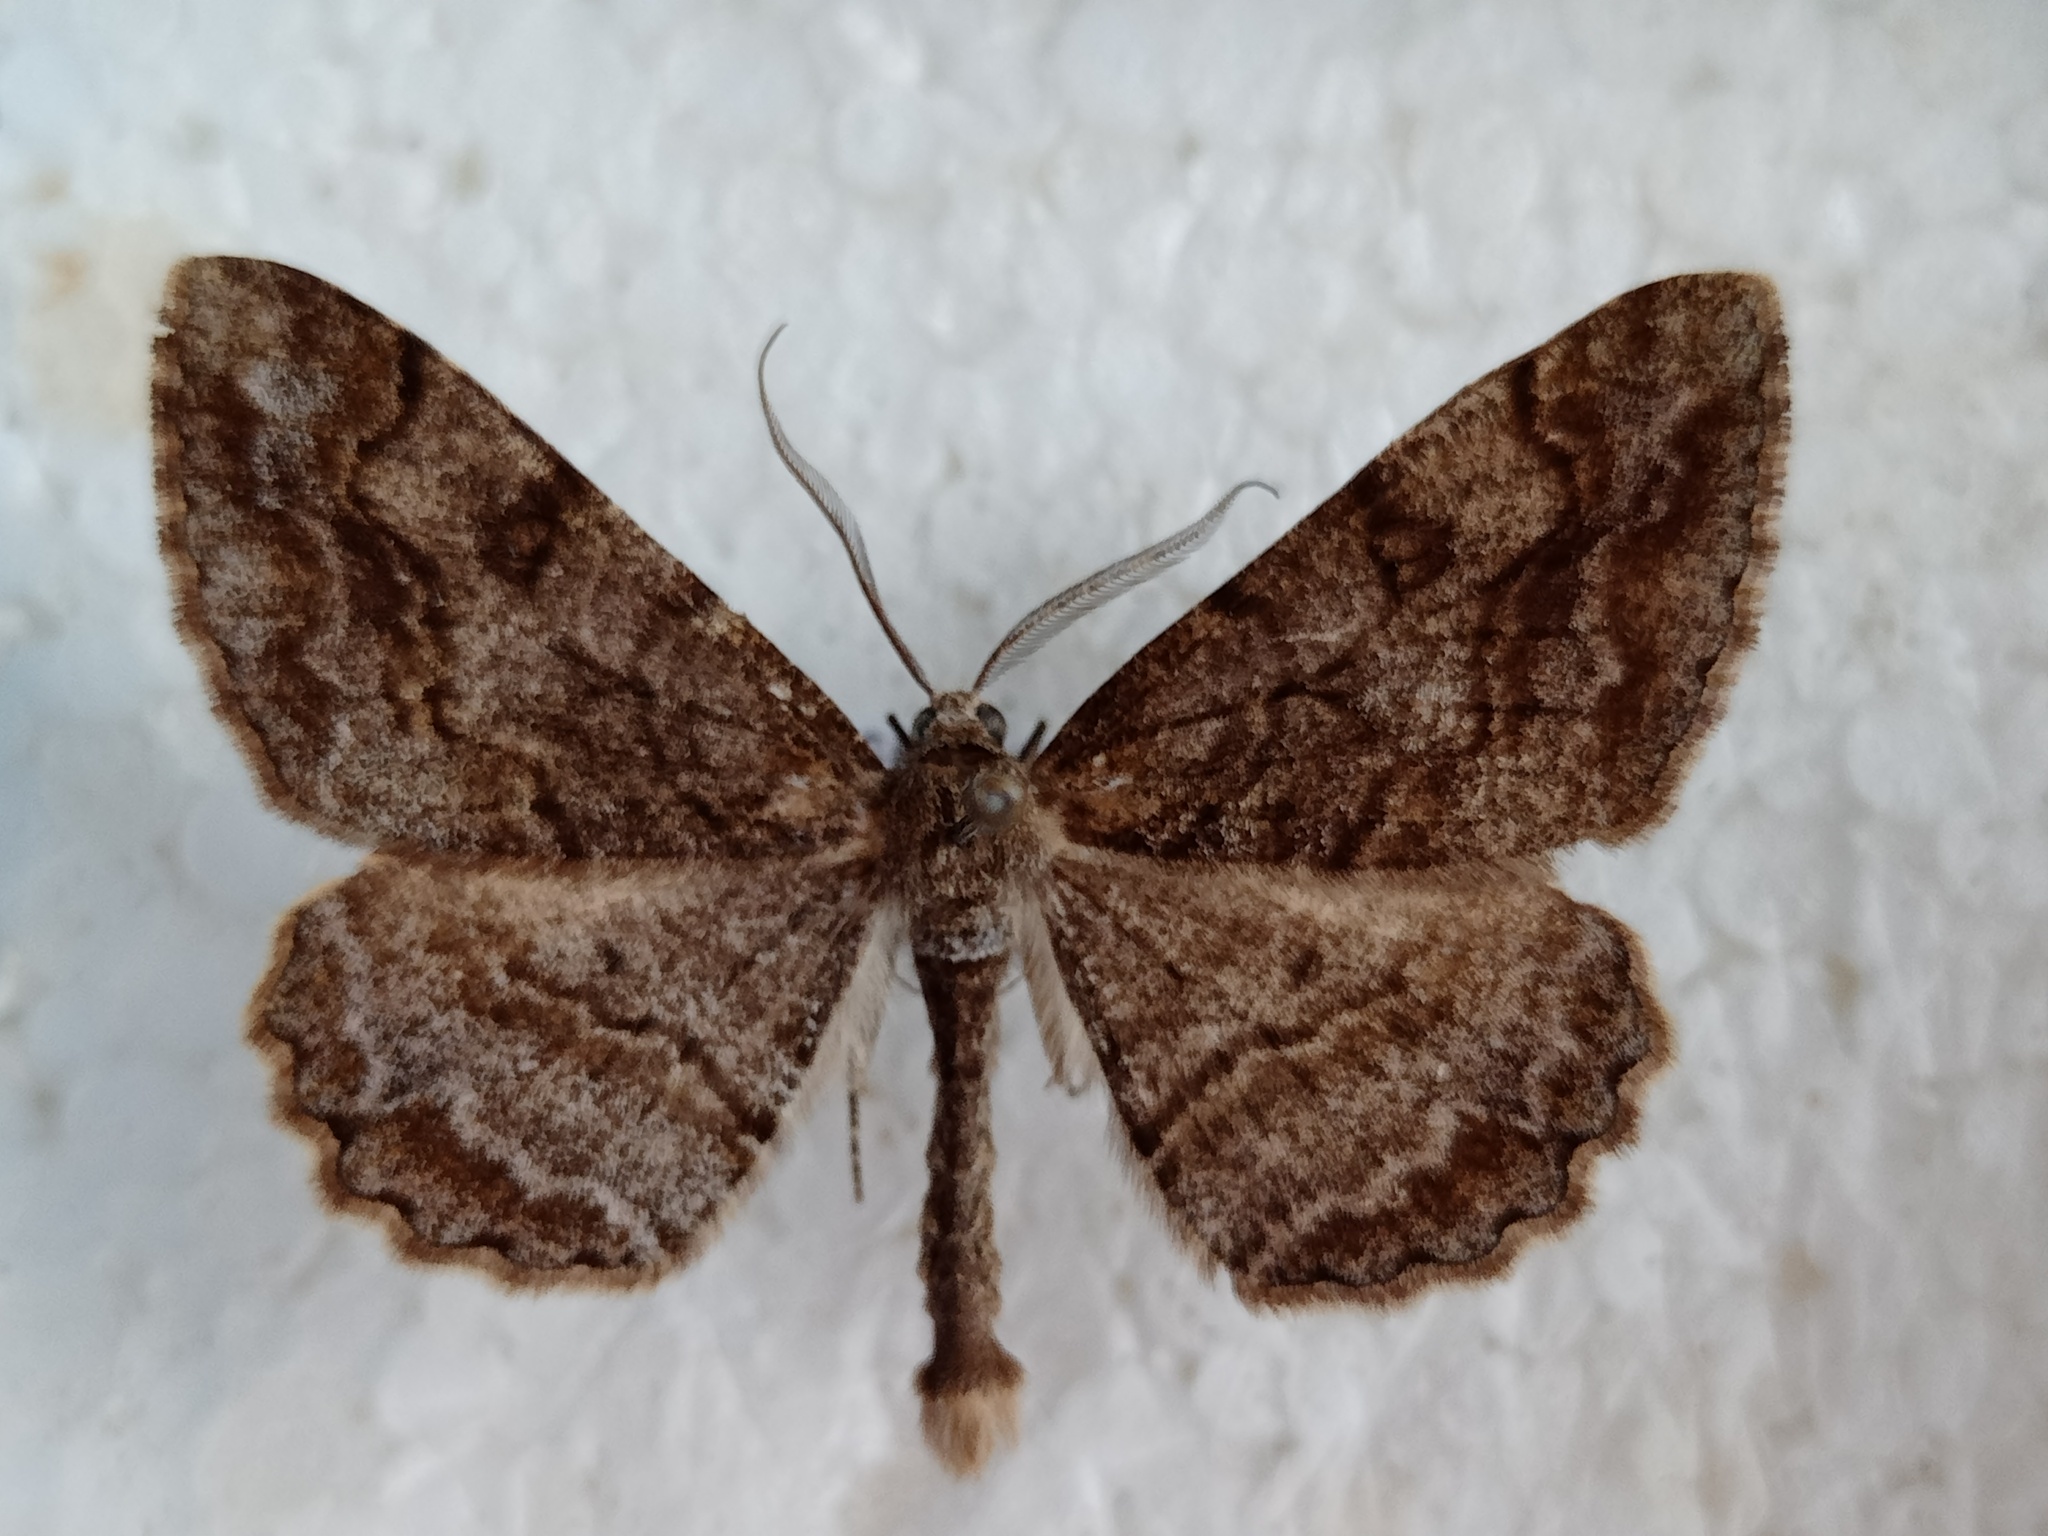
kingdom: Animalia
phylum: Arthropoda
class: Insecta
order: Lepidoptera
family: Geometridae
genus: Alcis
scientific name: Alcis repandata
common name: Mottled beauty
